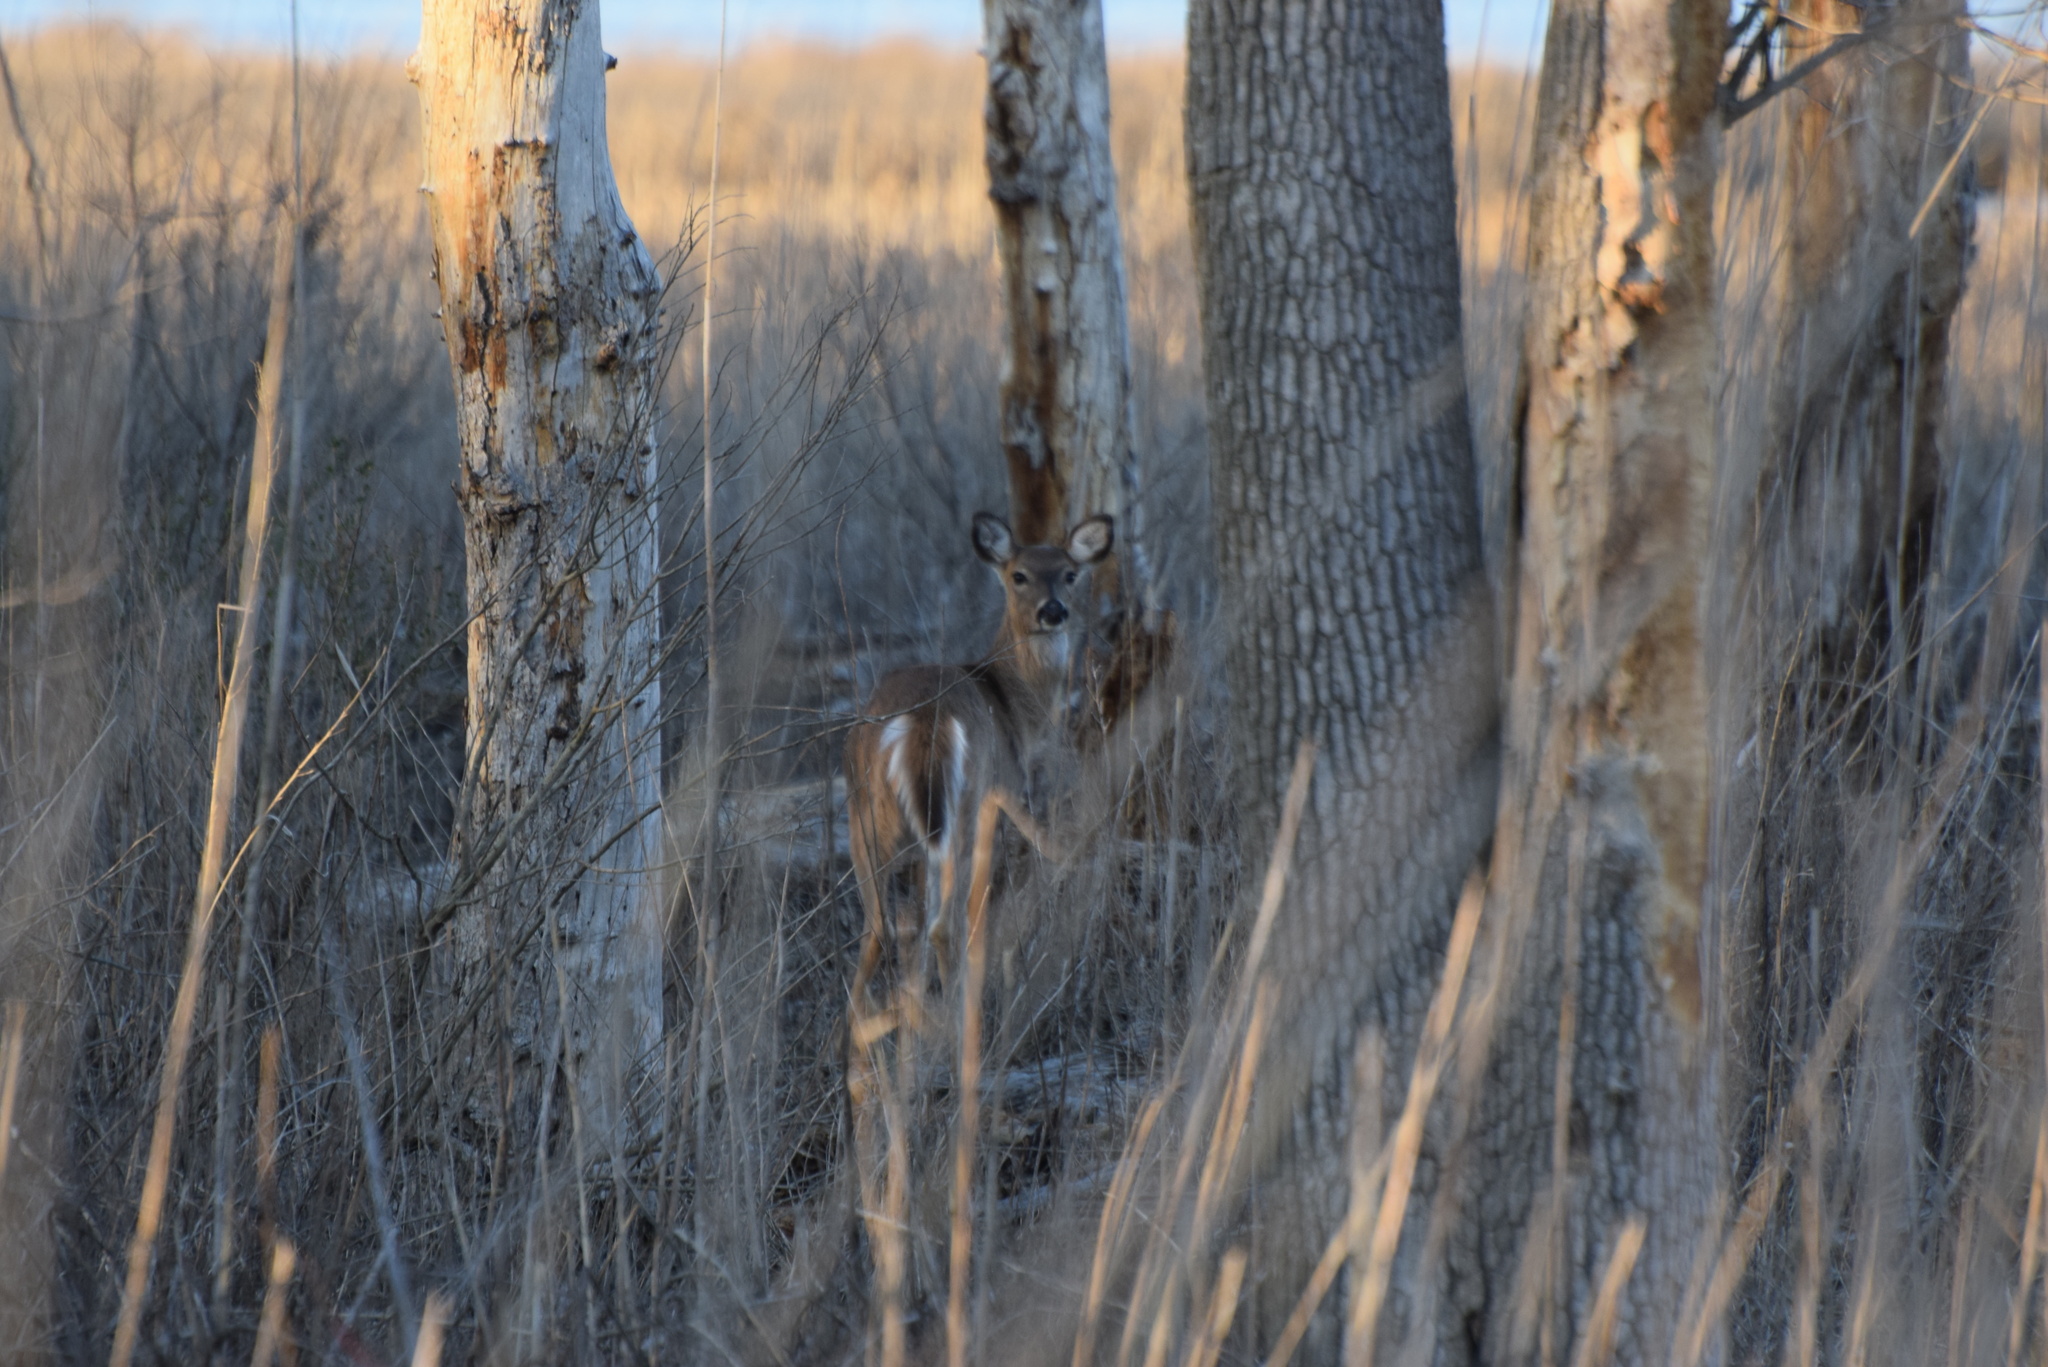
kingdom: Animalia
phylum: Chordata
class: Mammalia
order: Artiodactyla
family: Cervidae
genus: Odocoileus
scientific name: Odocoileus virginianus
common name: White-tailed deer
